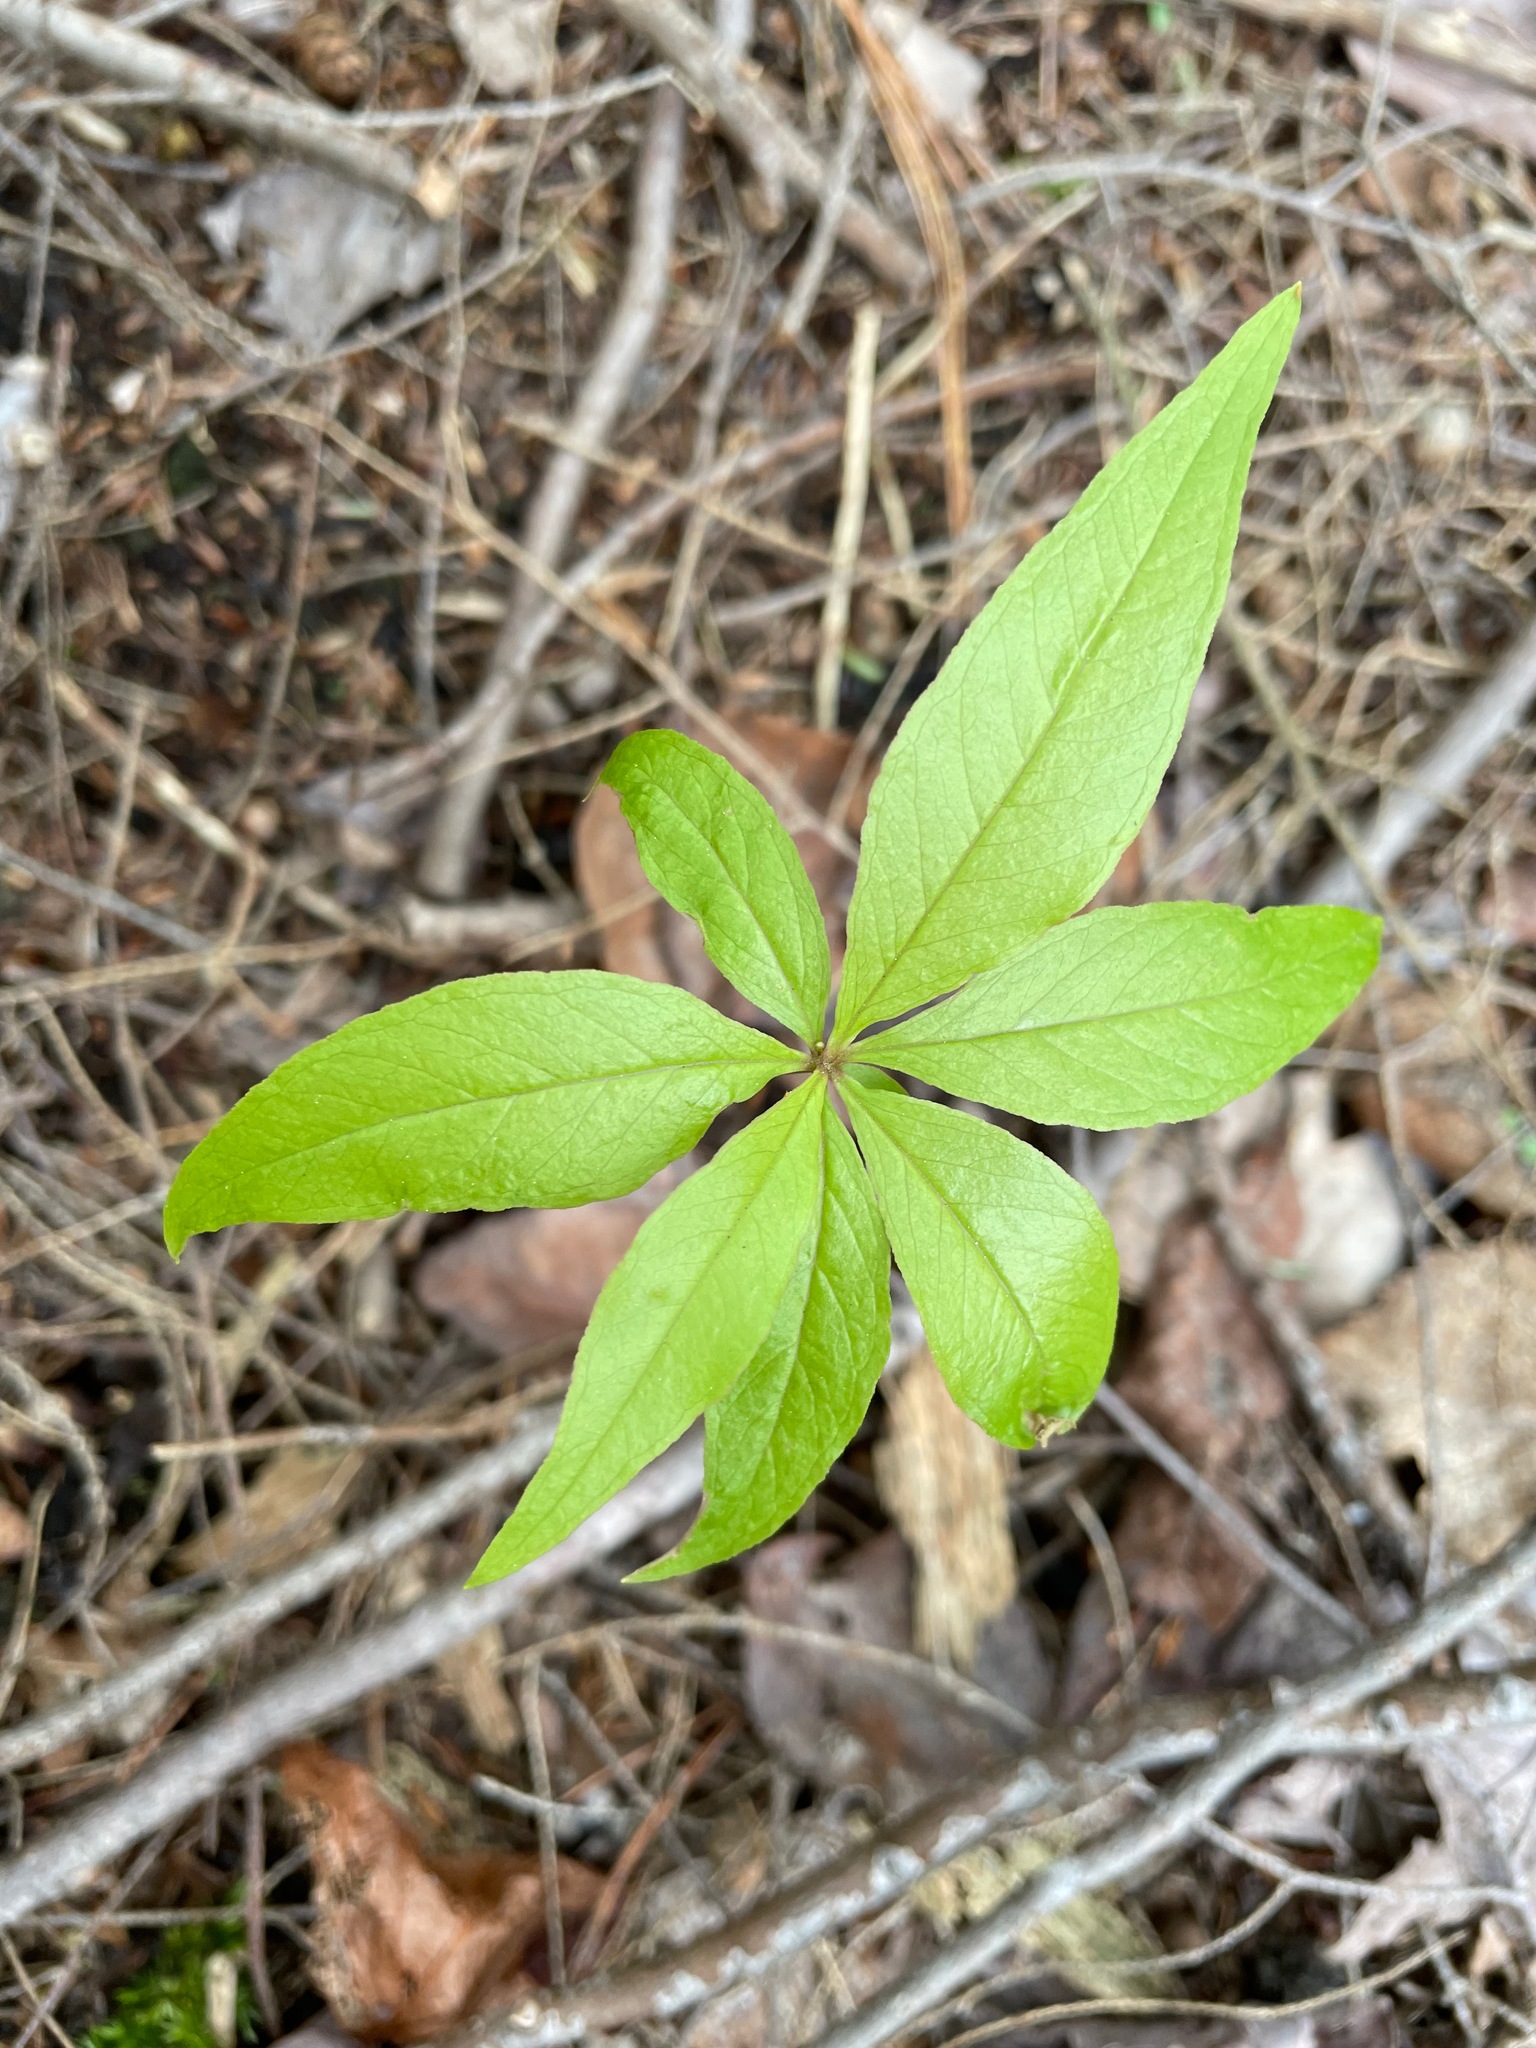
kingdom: Plantae
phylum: Tracheophyta
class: Magnoliopsida
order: Ericales
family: Primulaceae
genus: Lysimachia
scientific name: Lysimachia borealis
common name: American starflower
